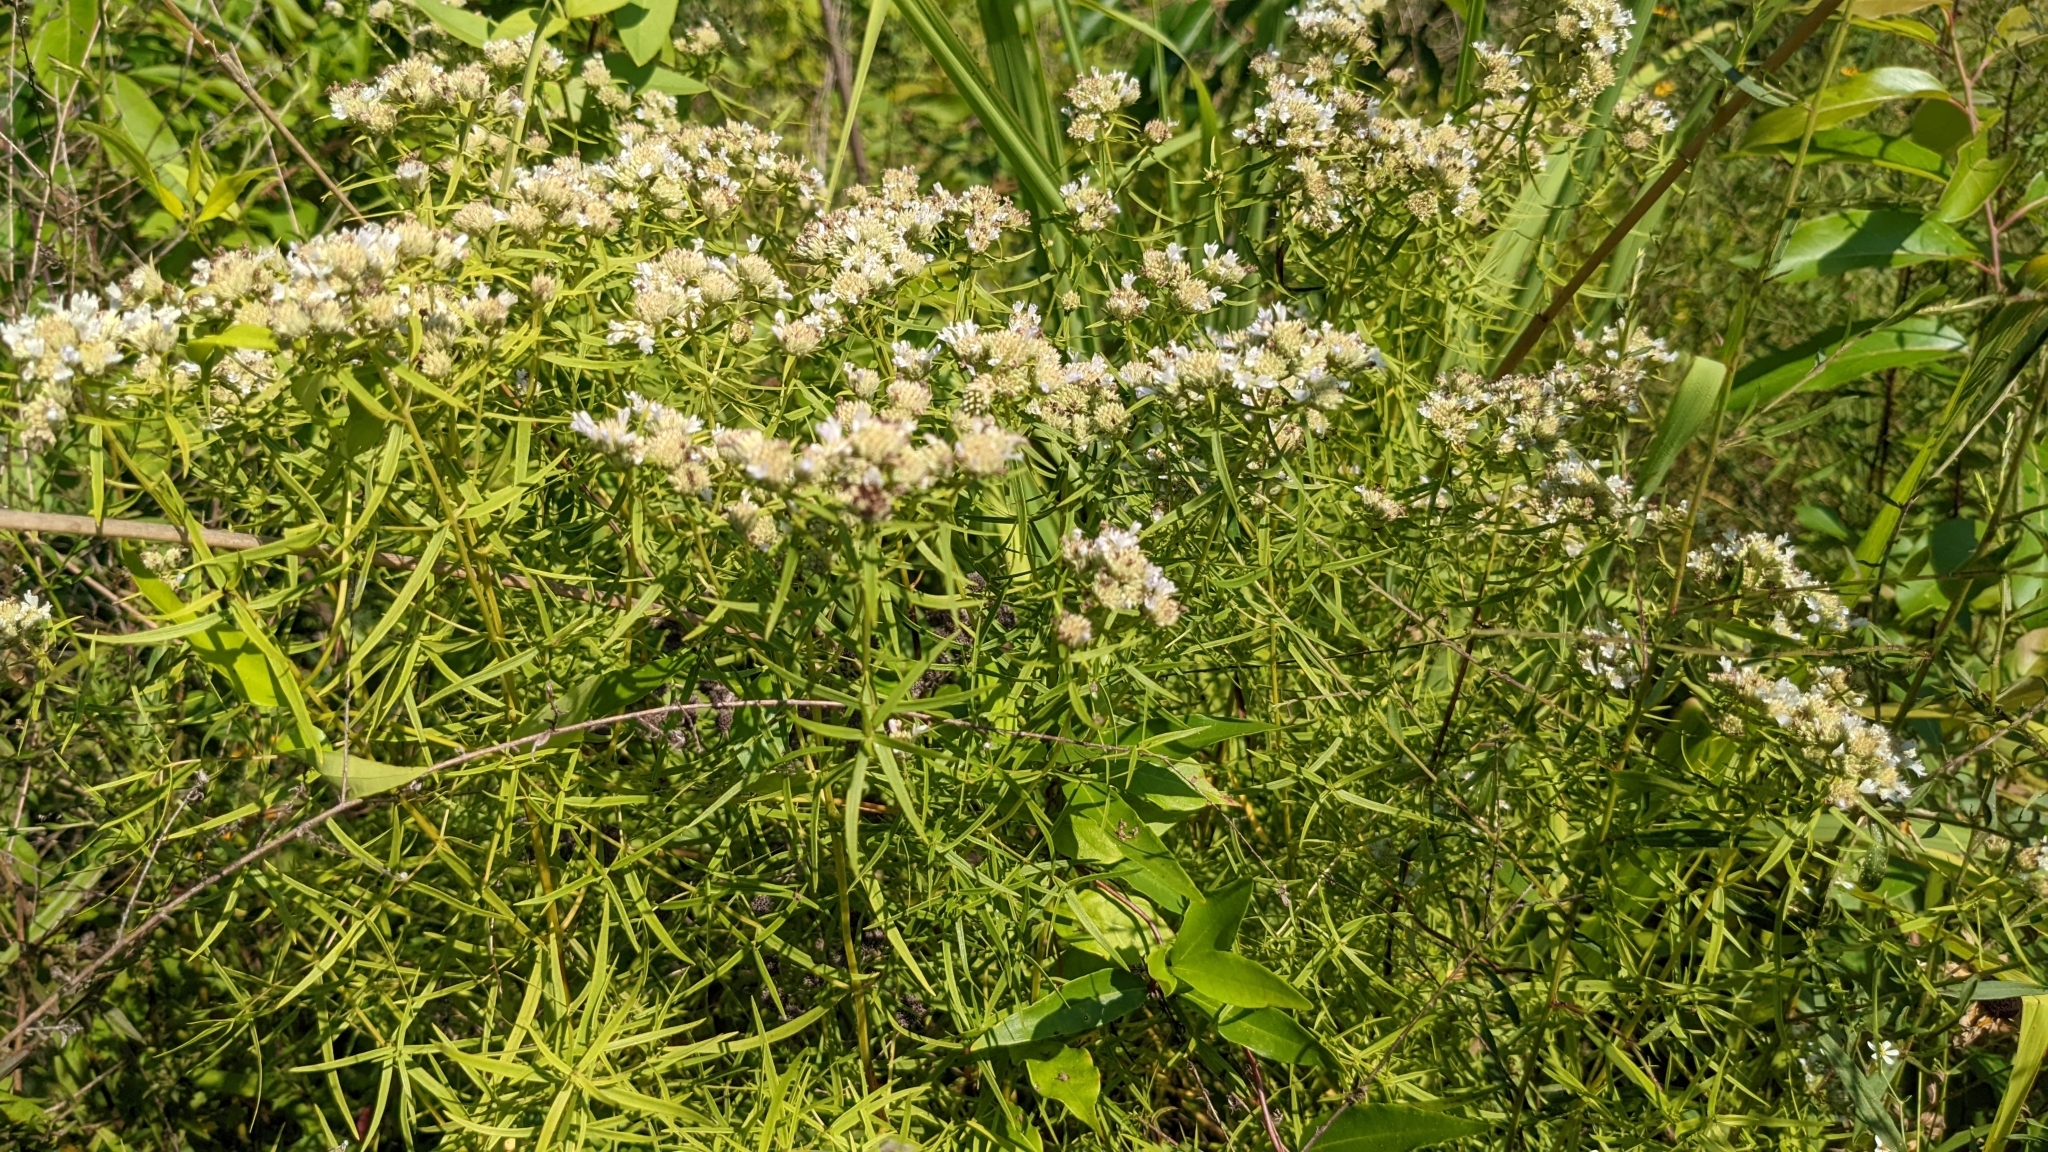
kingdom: Plantae
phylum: Tracheophyta
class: Magnoliopsida
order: Lamiales
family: Lamiaceae
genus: Pycnanthemum
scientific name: Pycnanthemum tenuifolium
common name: Narrow-leaf mountain-mint
